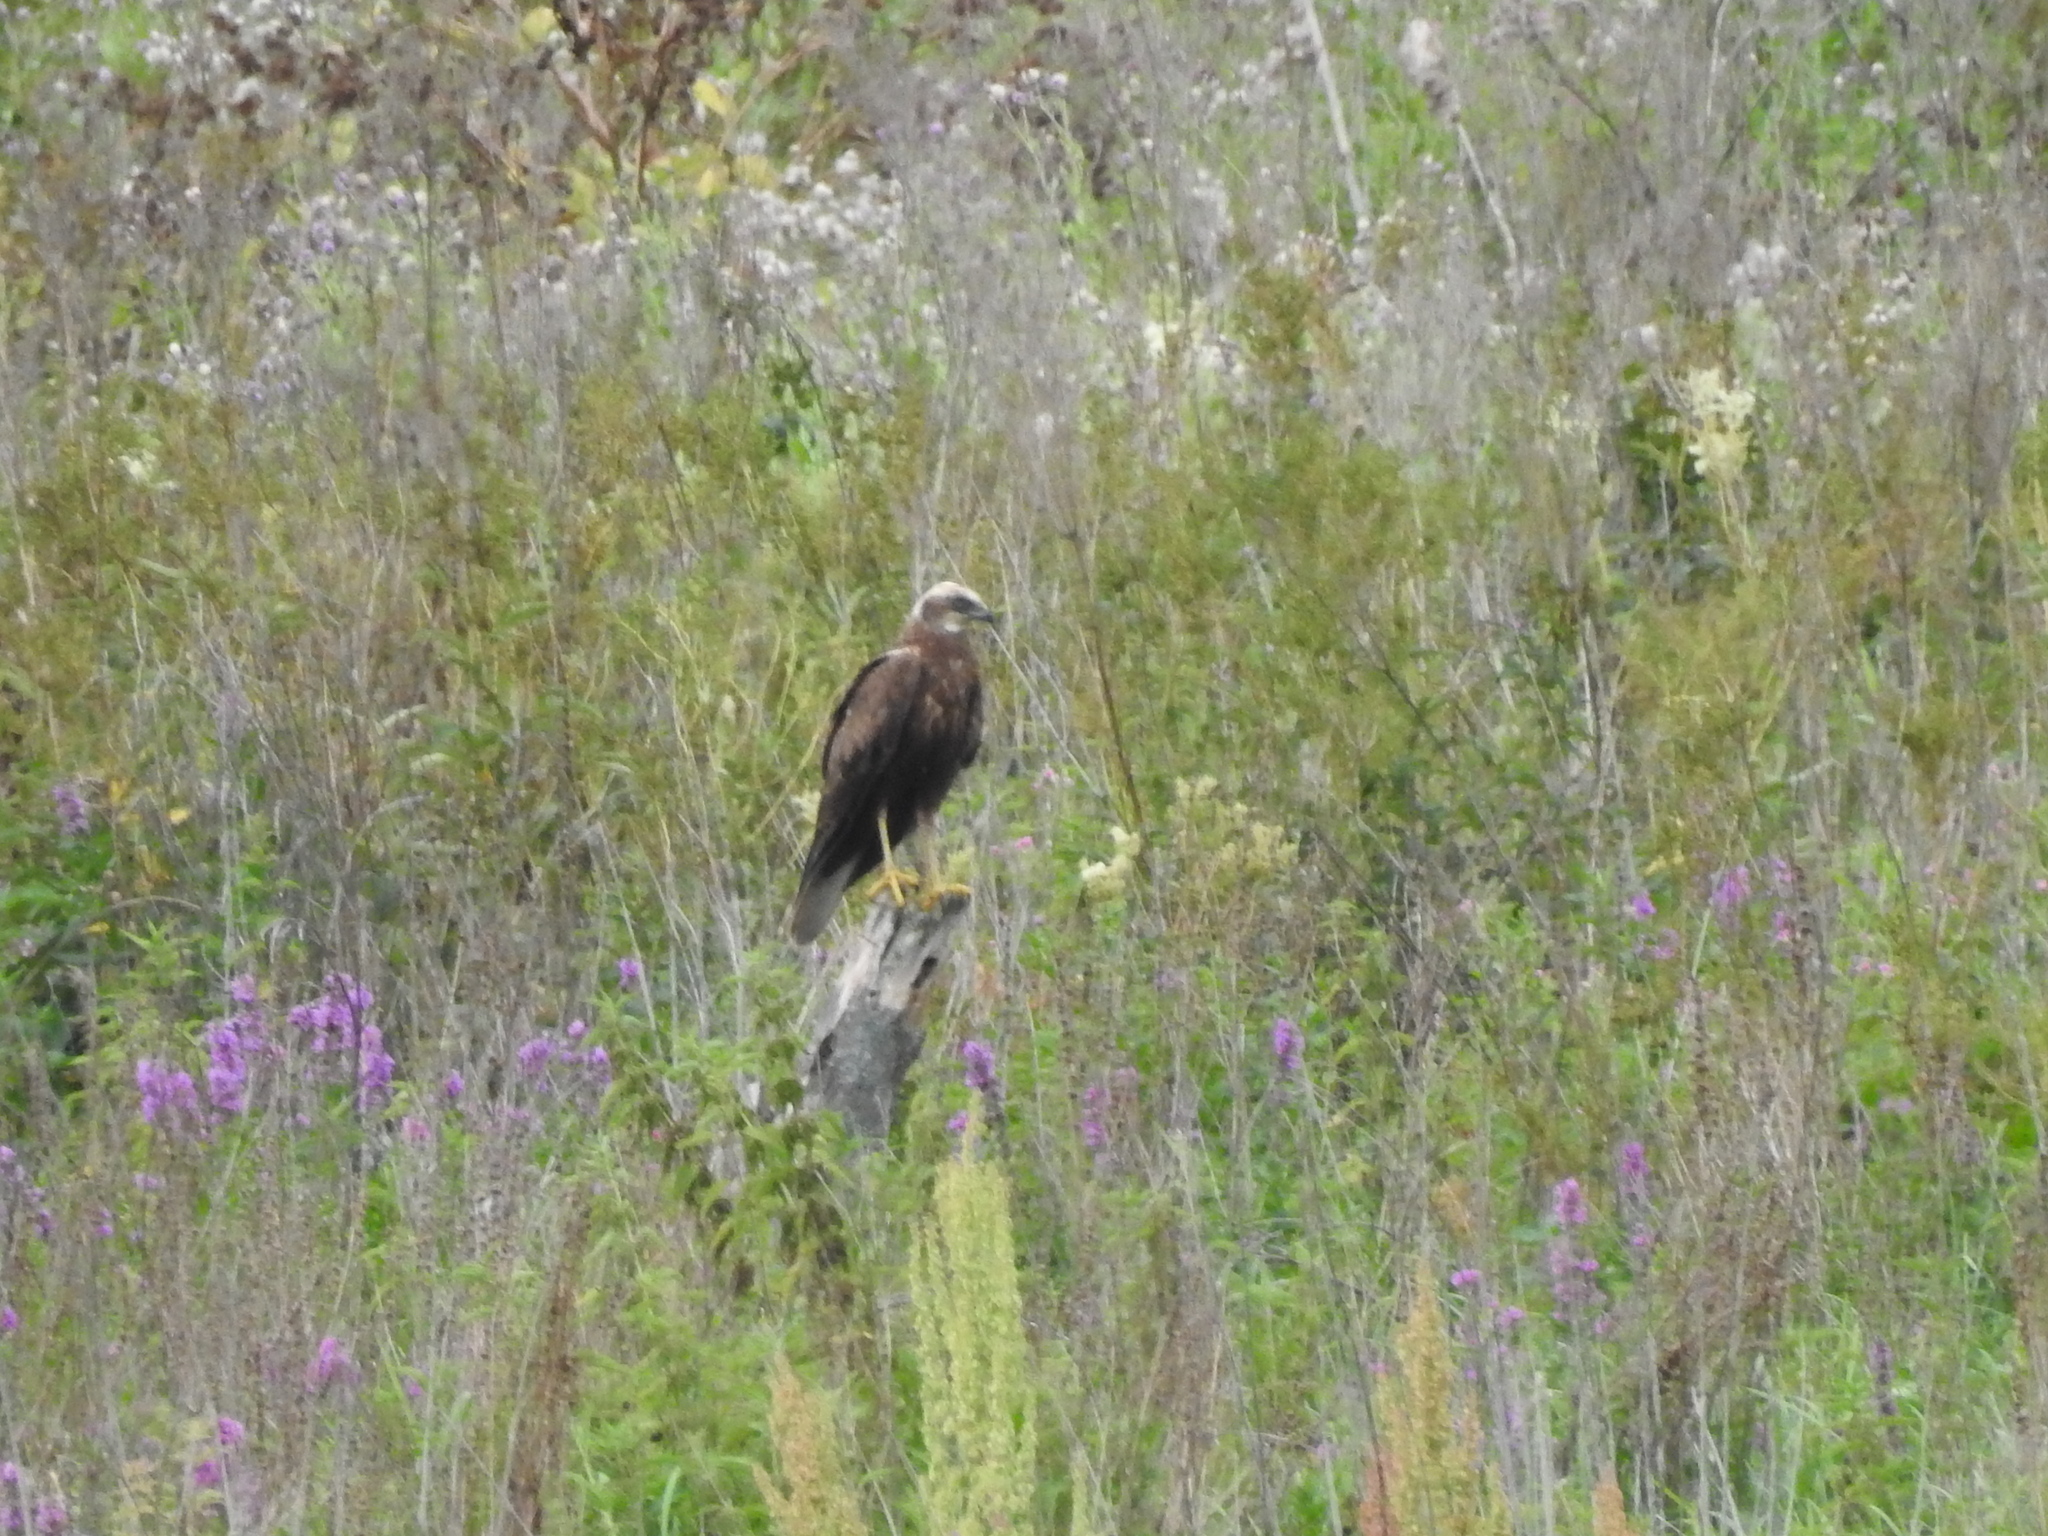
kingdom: Animalia
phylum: Chordata
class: Aves
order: Accipitriformes
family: Accipitridae
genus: Circus
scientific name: Circus aeruginosus
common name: Western marsh harrier
